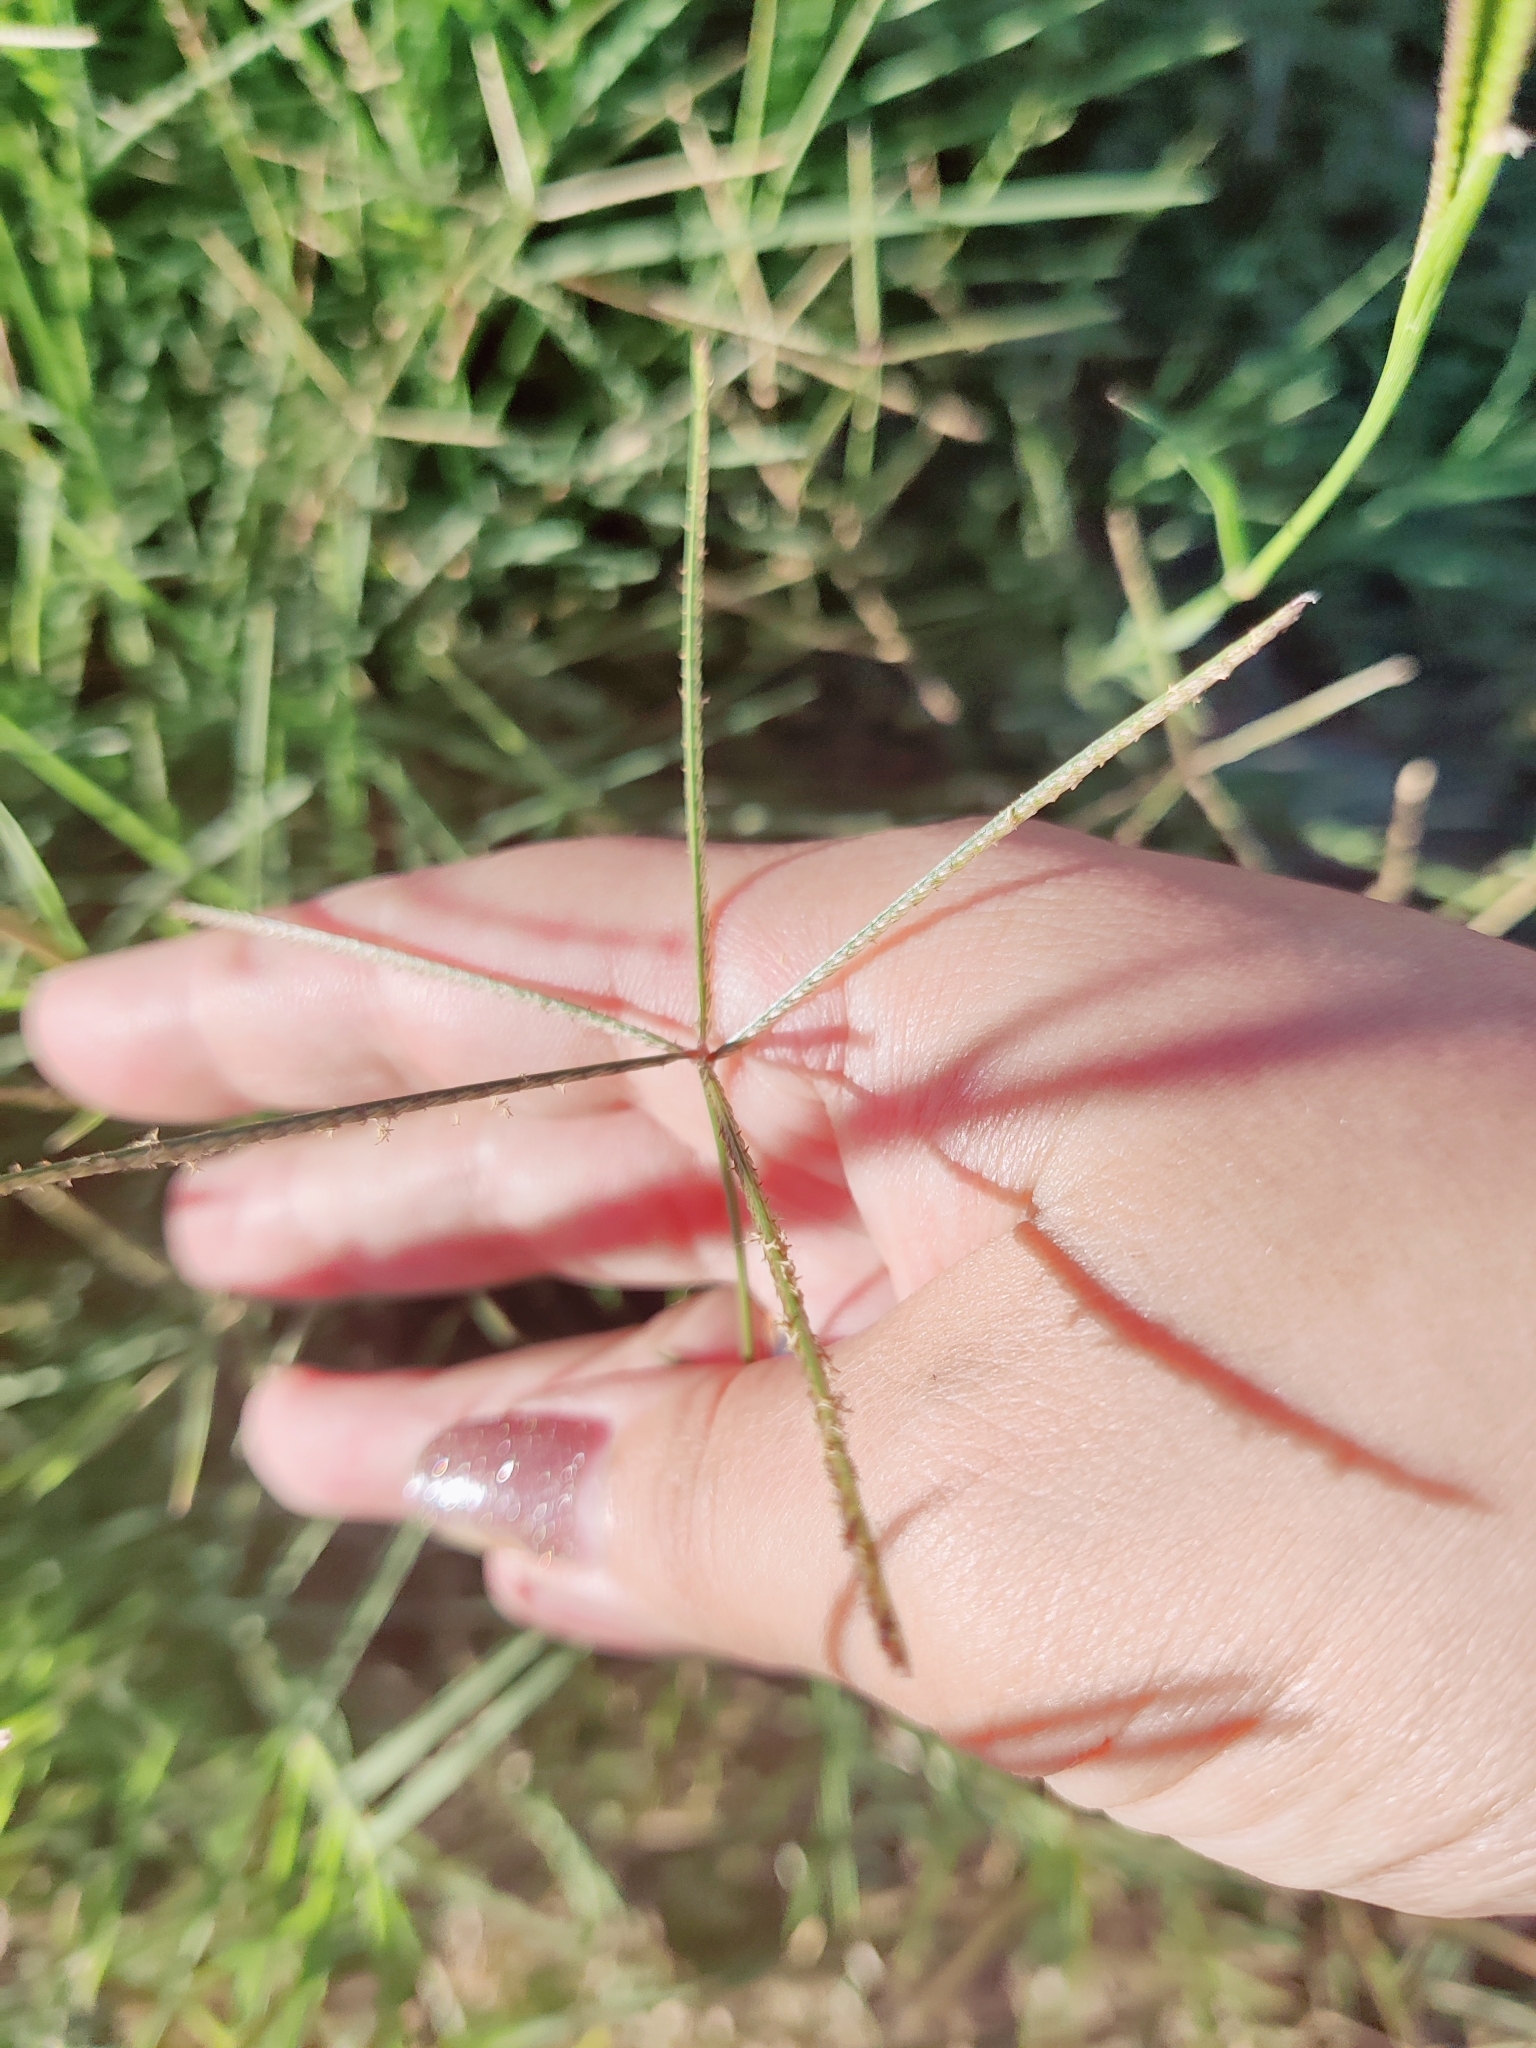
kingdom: Plantae
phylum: Tracheophyta
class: Liliopsida
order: Poales
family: Poaceae
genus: Cynodon
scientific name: Cynodon dactylon
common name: Bermuda grass
